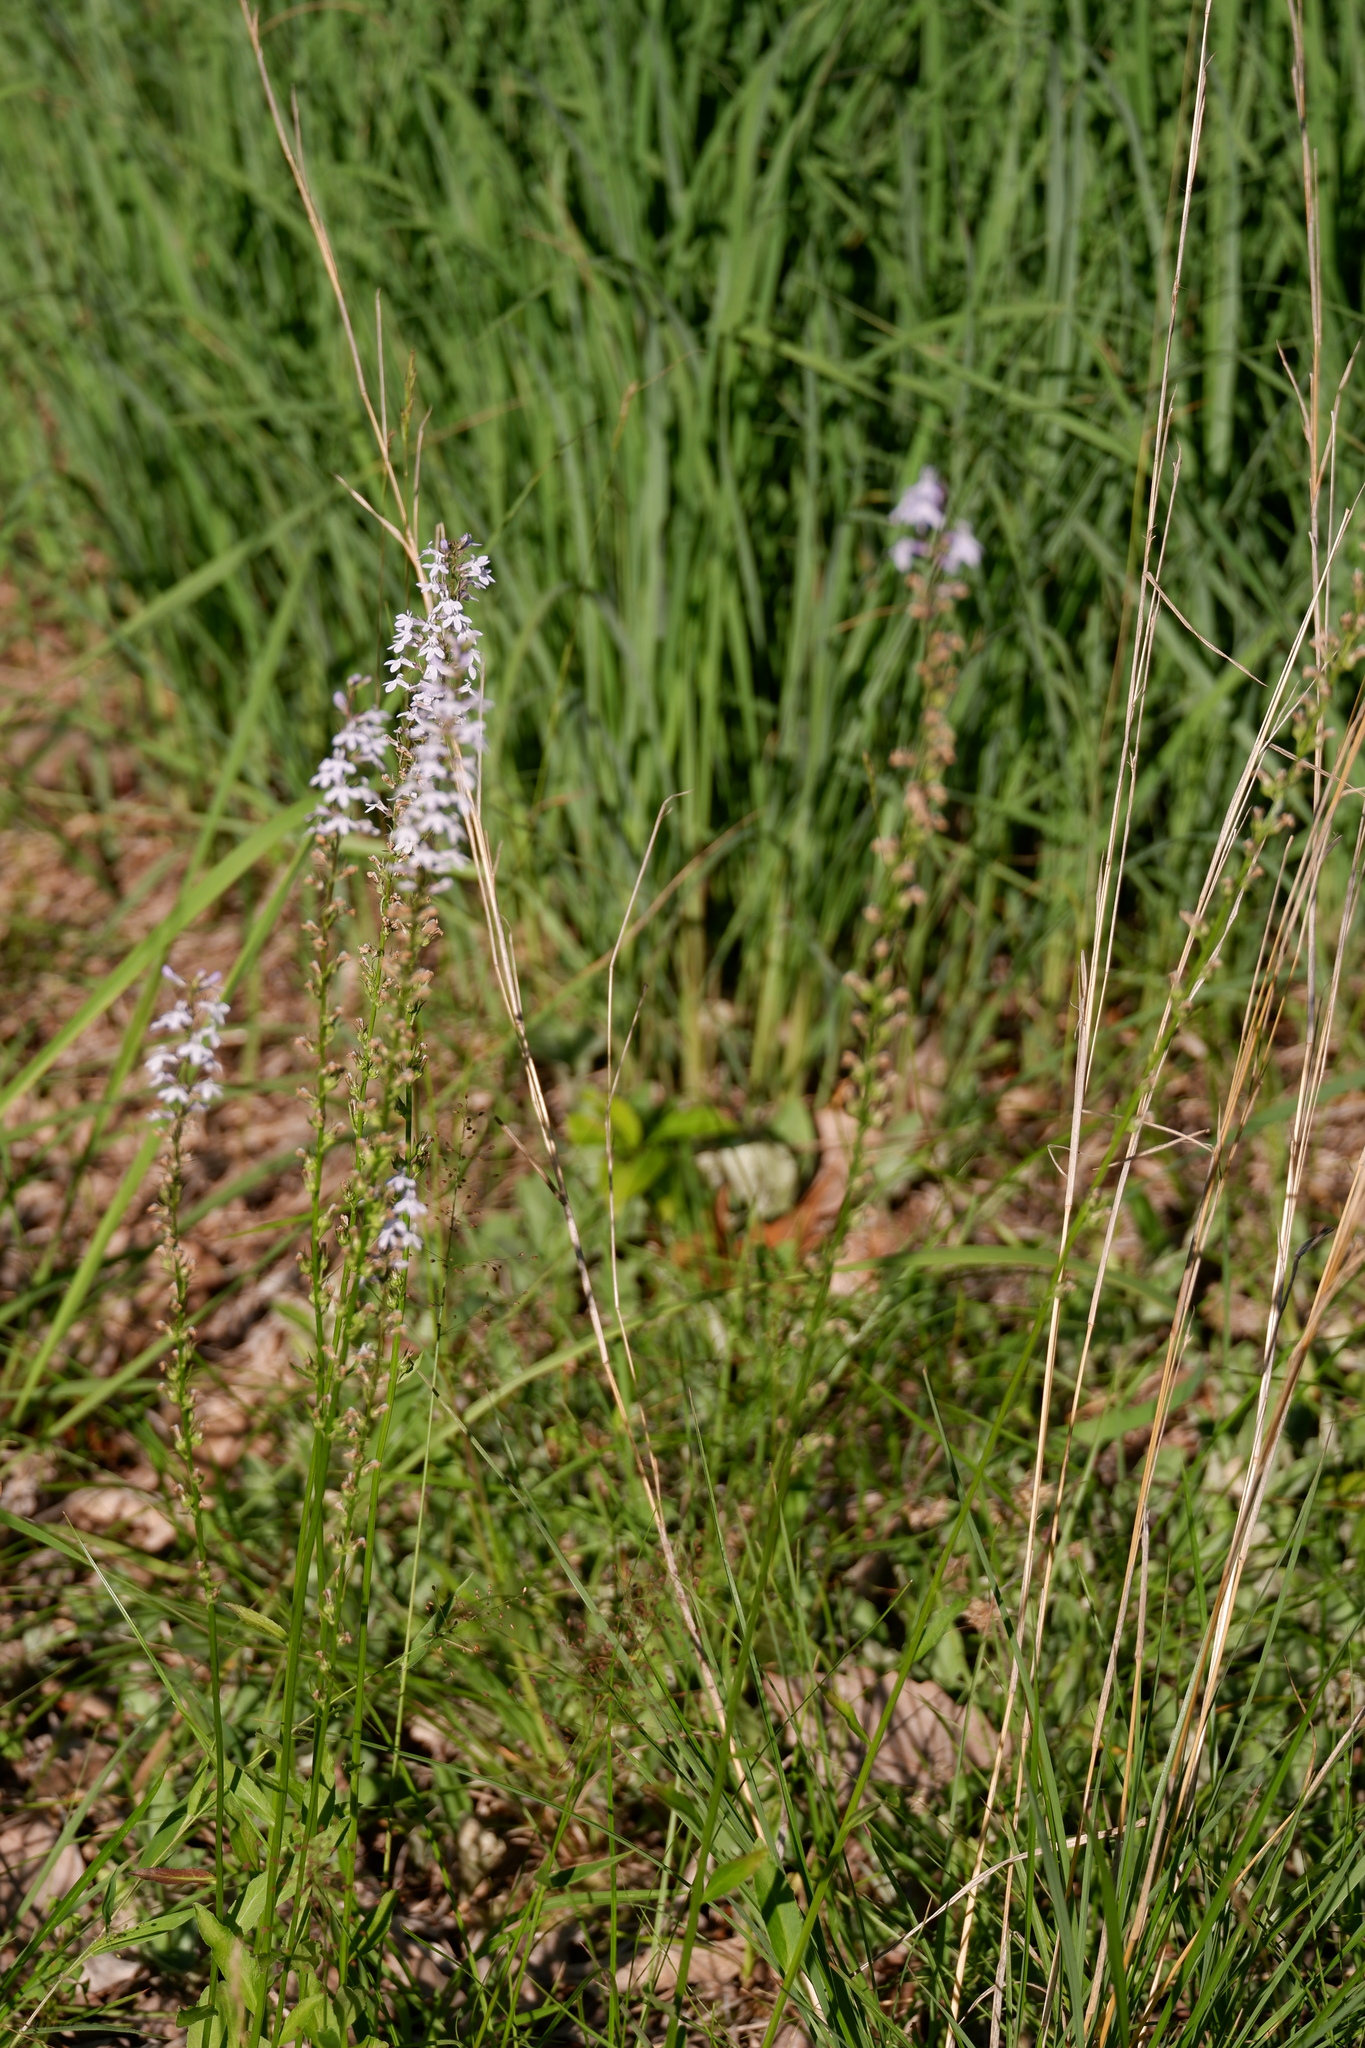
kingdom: Plantae
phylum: Tracheophyta
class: Magnoliopsida
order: Asterales
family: Campanulaceae
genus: Lobelia
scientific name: Lobelia spicata
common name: Pale-spike lobelia
